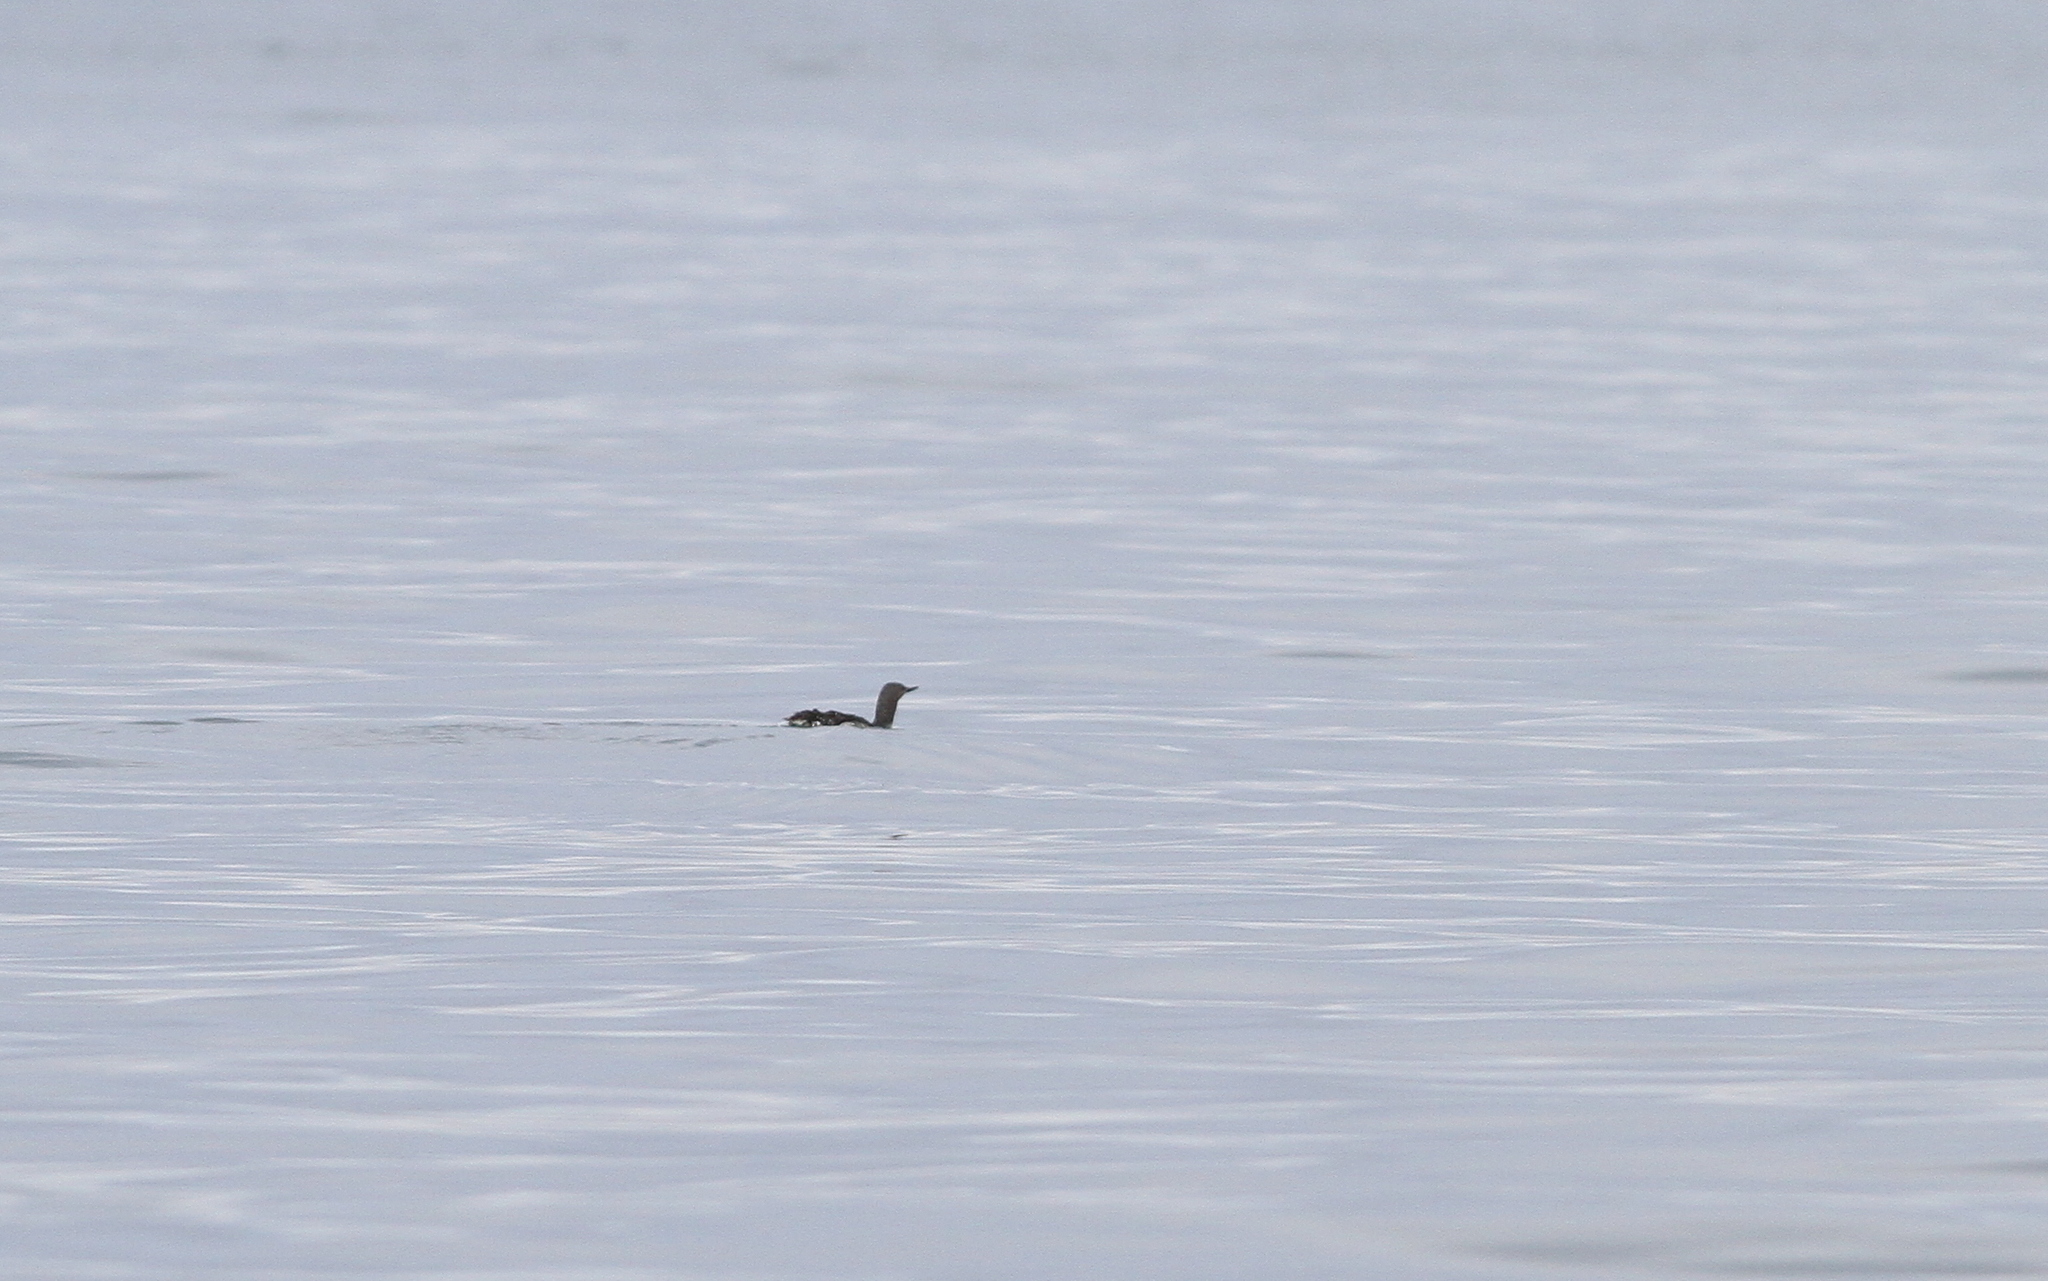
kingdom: Animalia
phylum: Chordata
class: Aves
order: Gaviiformes
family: Gaviidae
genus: Gavia
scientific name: Gavia stellata
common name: Red-throated loon
